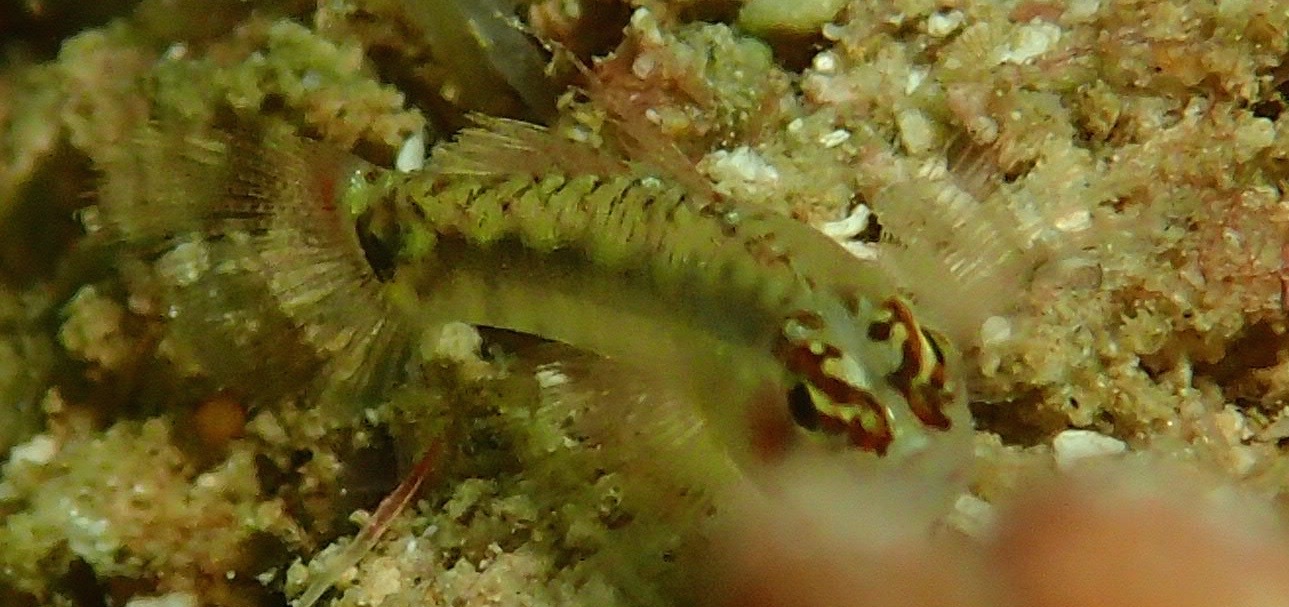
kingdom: Animalia
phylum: Chordata
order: Perciformes
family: Gobiidae
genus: Eviota
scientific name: Eviota longirostris
